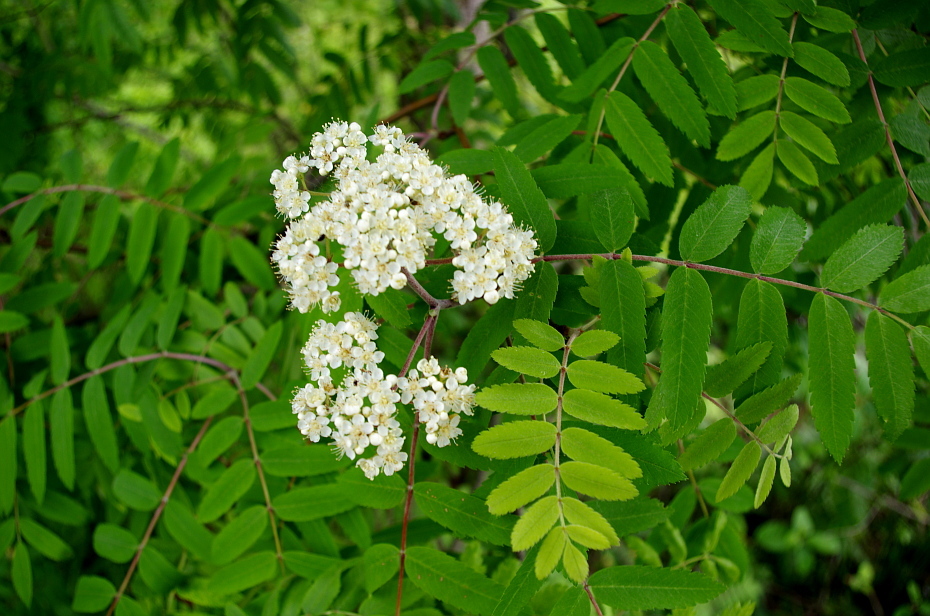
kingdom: Plantae
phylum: Tracheophyta
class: Magnoliopsida
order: Rosales
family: Rosaceae
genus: Sorbus
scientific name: Sorbus aucuparia
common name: Rowan
